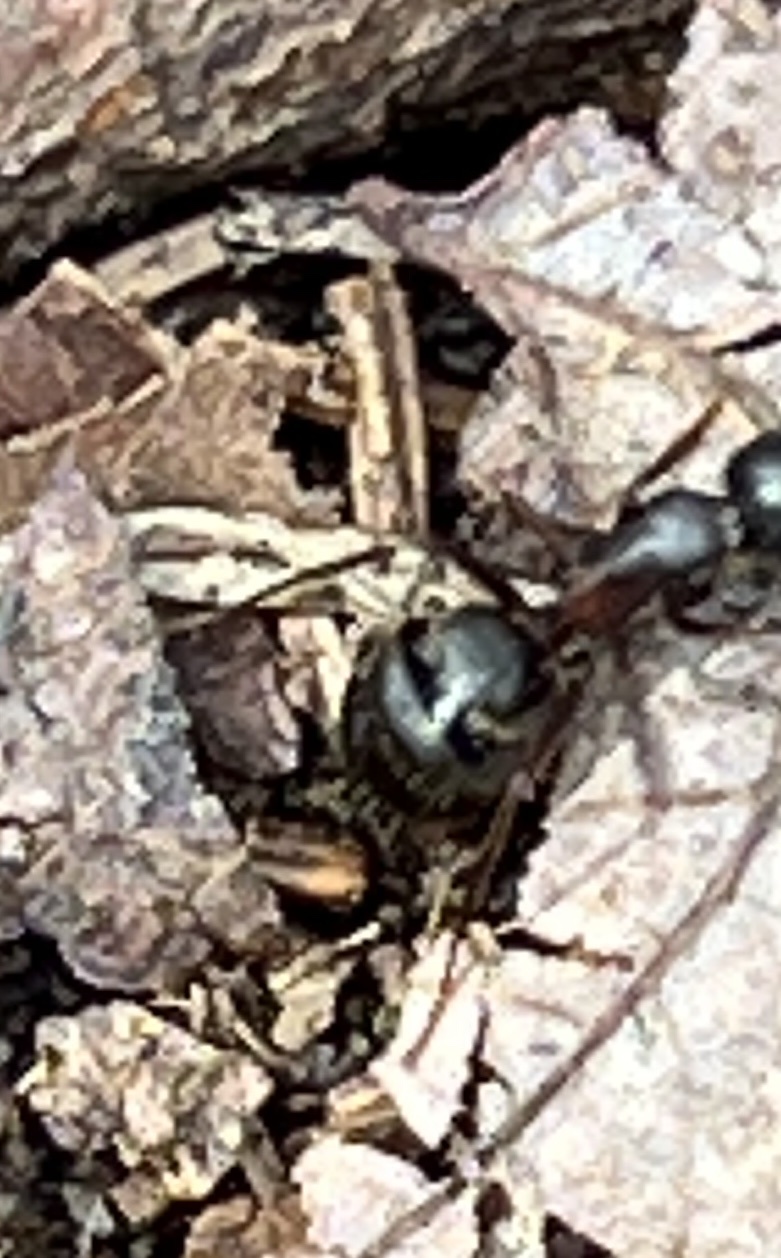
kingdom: Animalia
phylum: Arthropoda
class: Insecta
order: Hymenoptera
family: Formicidae
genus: Camponotus
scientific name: Camponotus herculeanus
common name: Hercules ant
